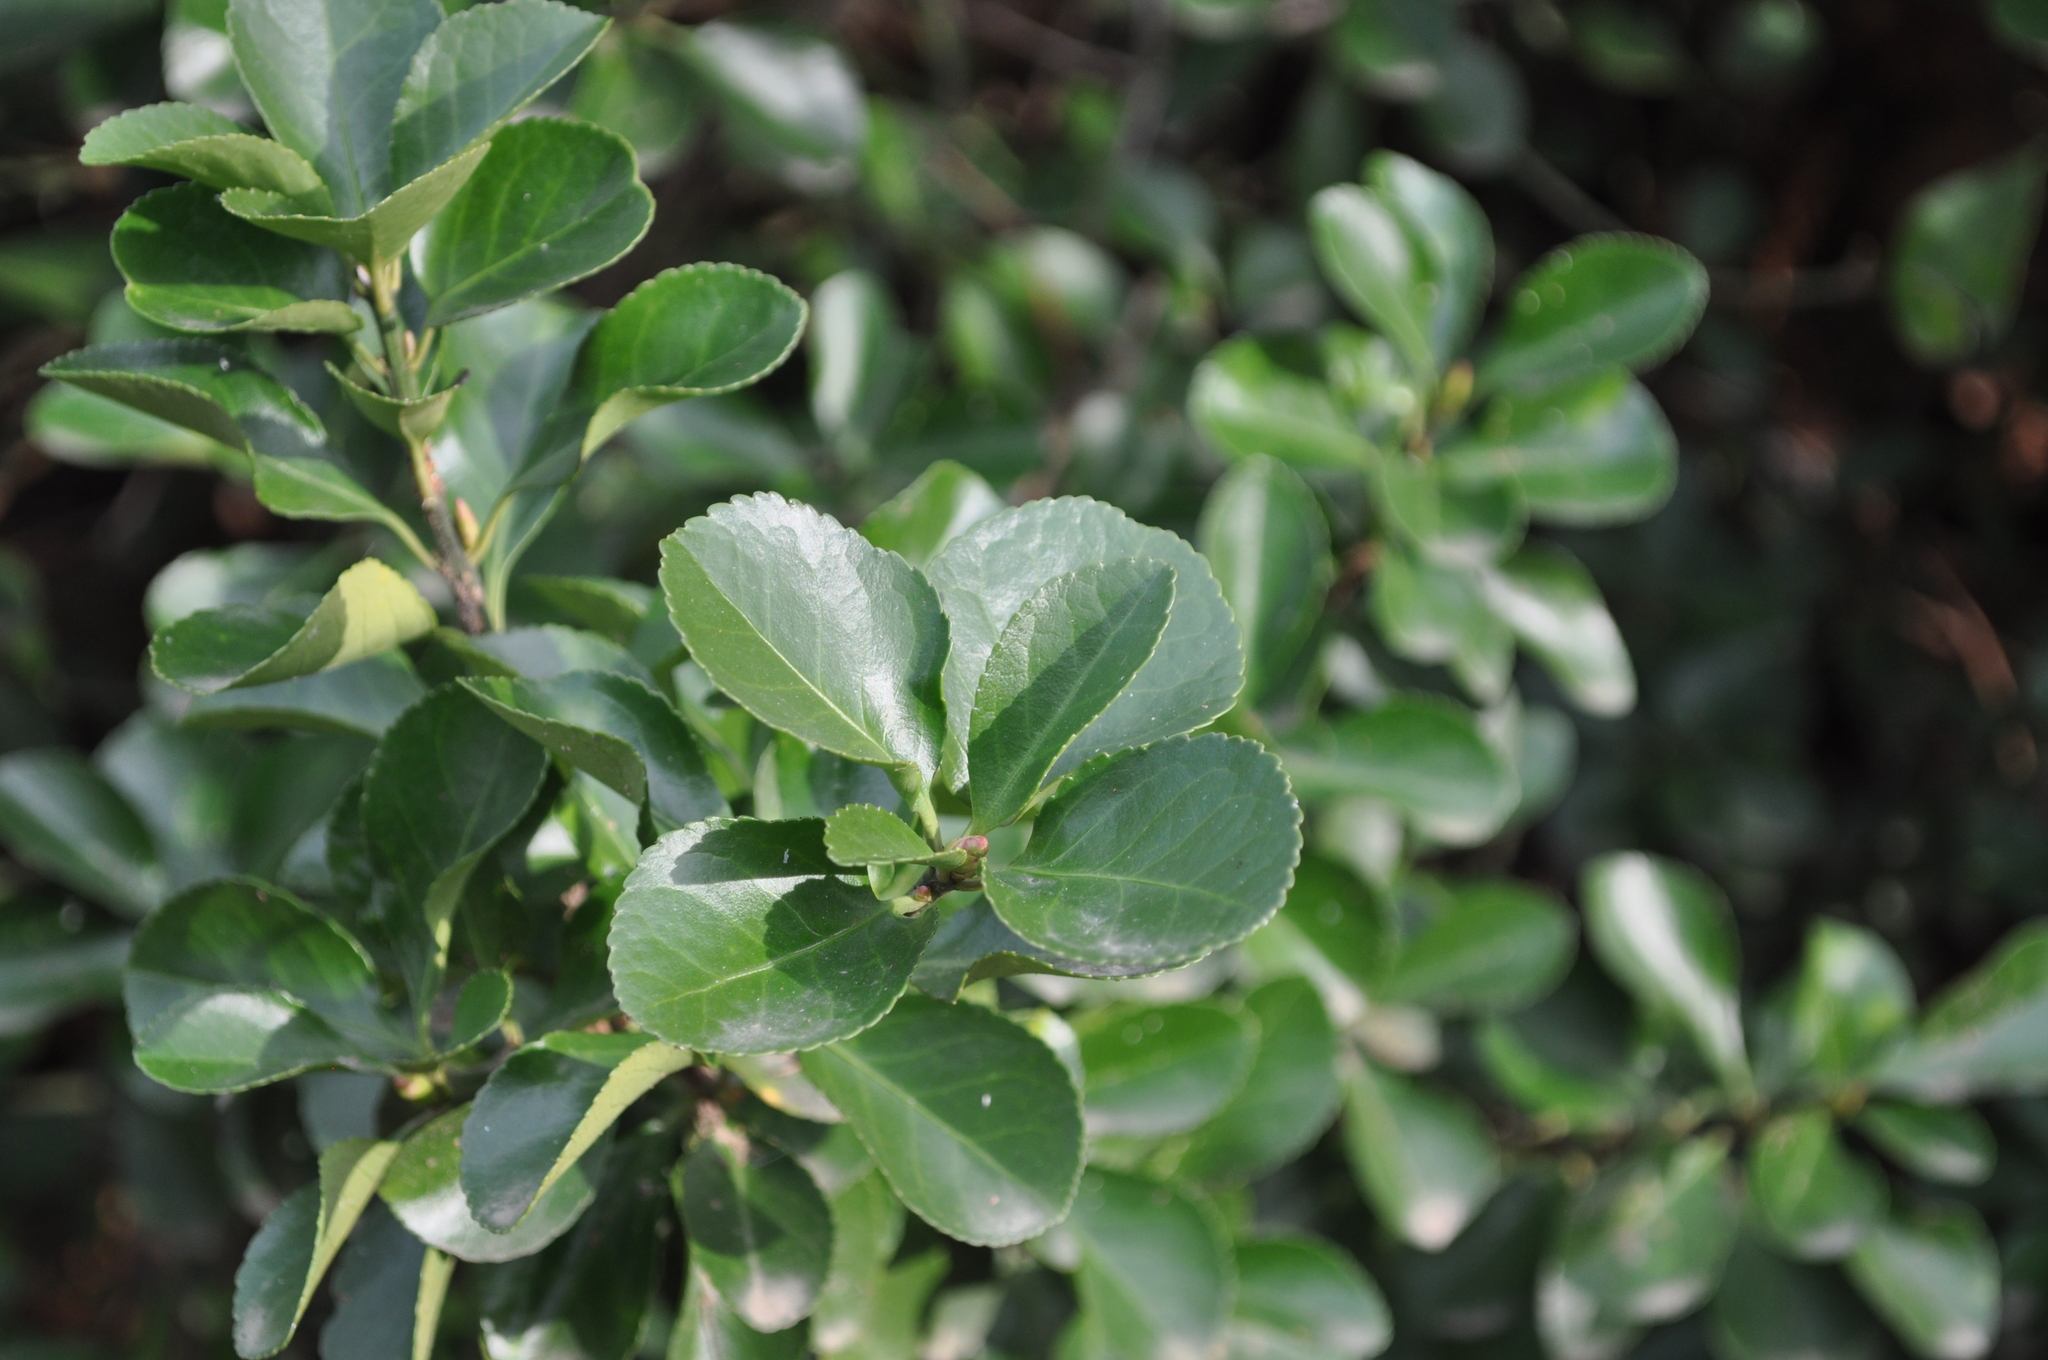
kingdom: Plantae
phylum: Tracheophyta
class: Magnoliopsida
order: Celastrales
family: Celastraceae
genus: Euonymus
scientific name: Euonymus japonicus
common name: Japanese spindletree
